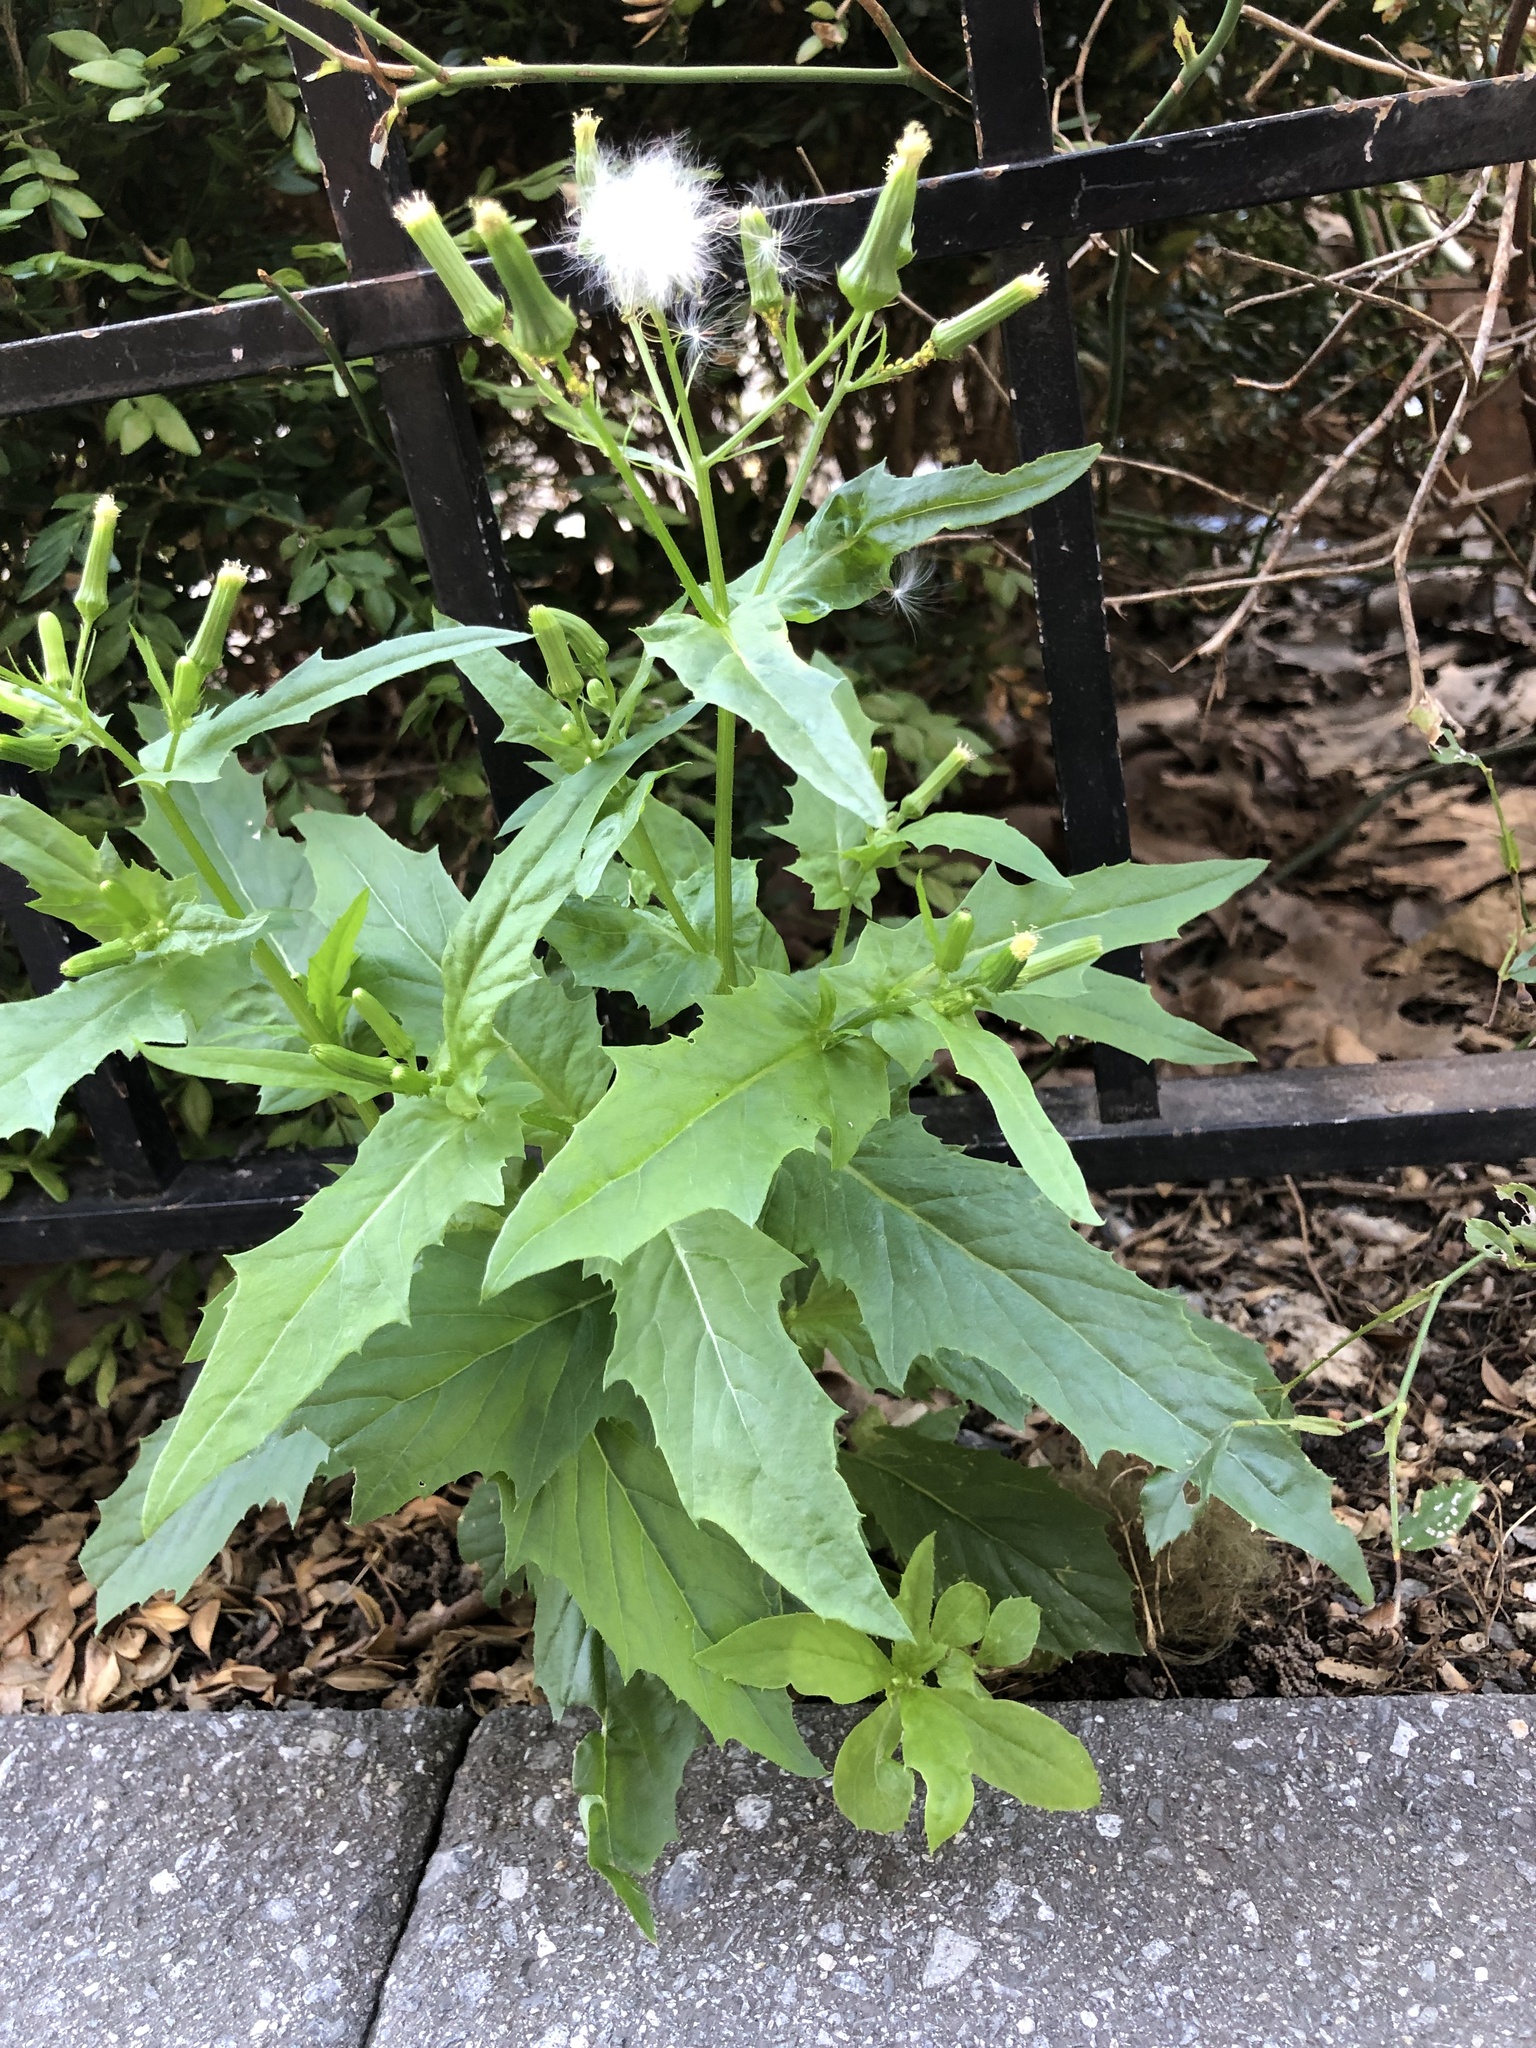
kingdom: Plantae
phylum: Tracheophyta
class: Magnoliopsida
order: Asterales
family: Asteraceae
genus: Erechtites
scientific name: Erechtites hieraciifolius
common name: American burnweed
